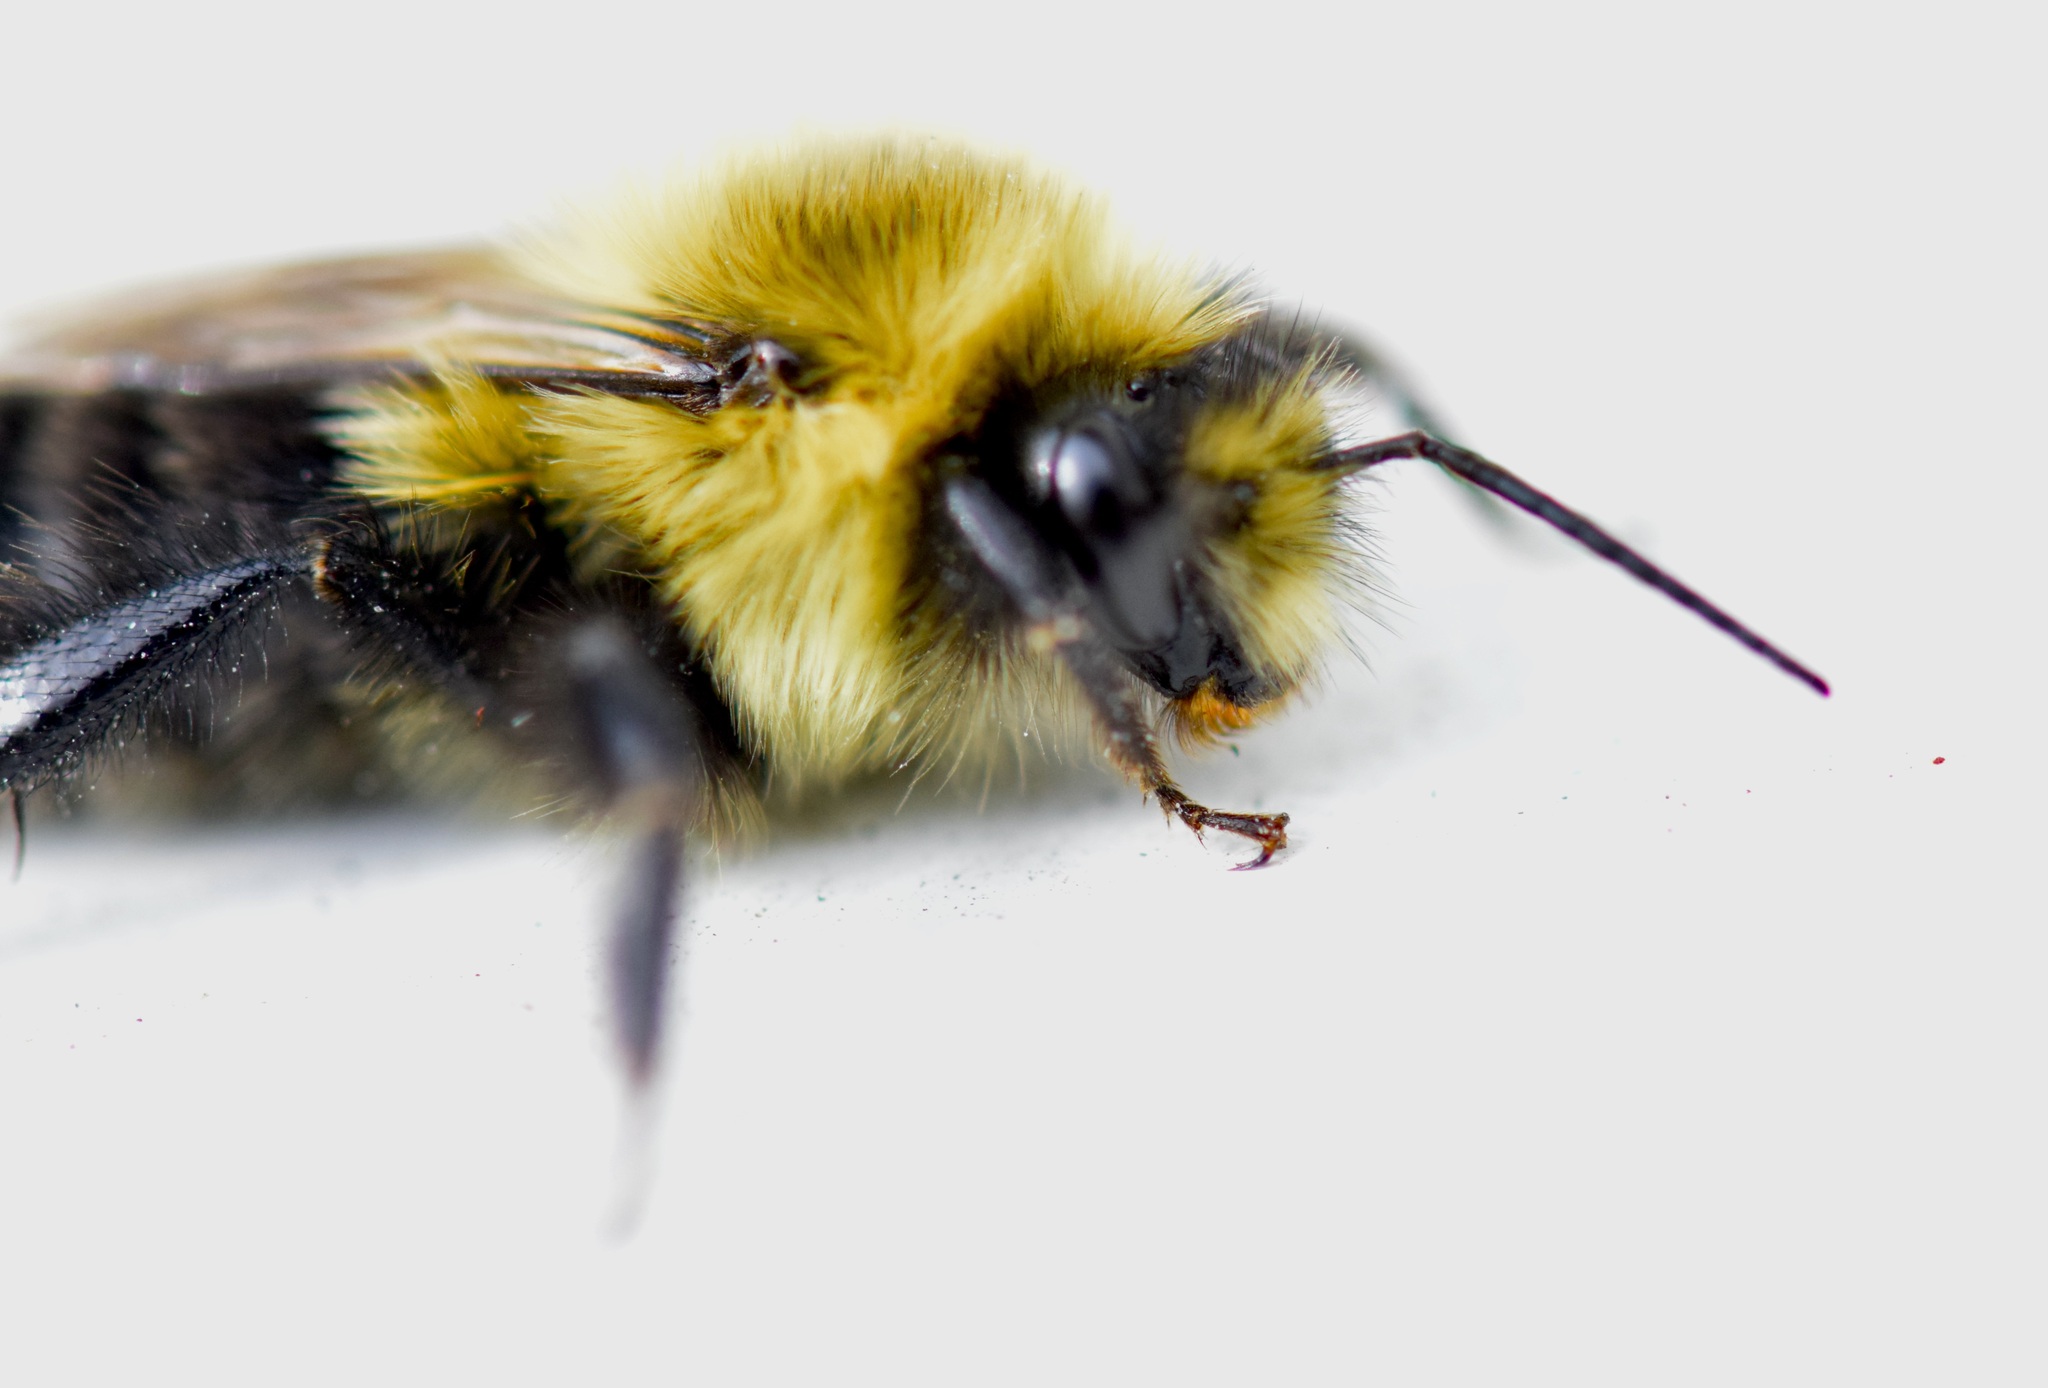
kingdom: Animalia
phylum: Arthropoda
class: Insecta
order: Hymenoptera
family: Apidae
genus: Bombus
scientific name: Bombus impatiens
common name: Common eastern bumble bee
